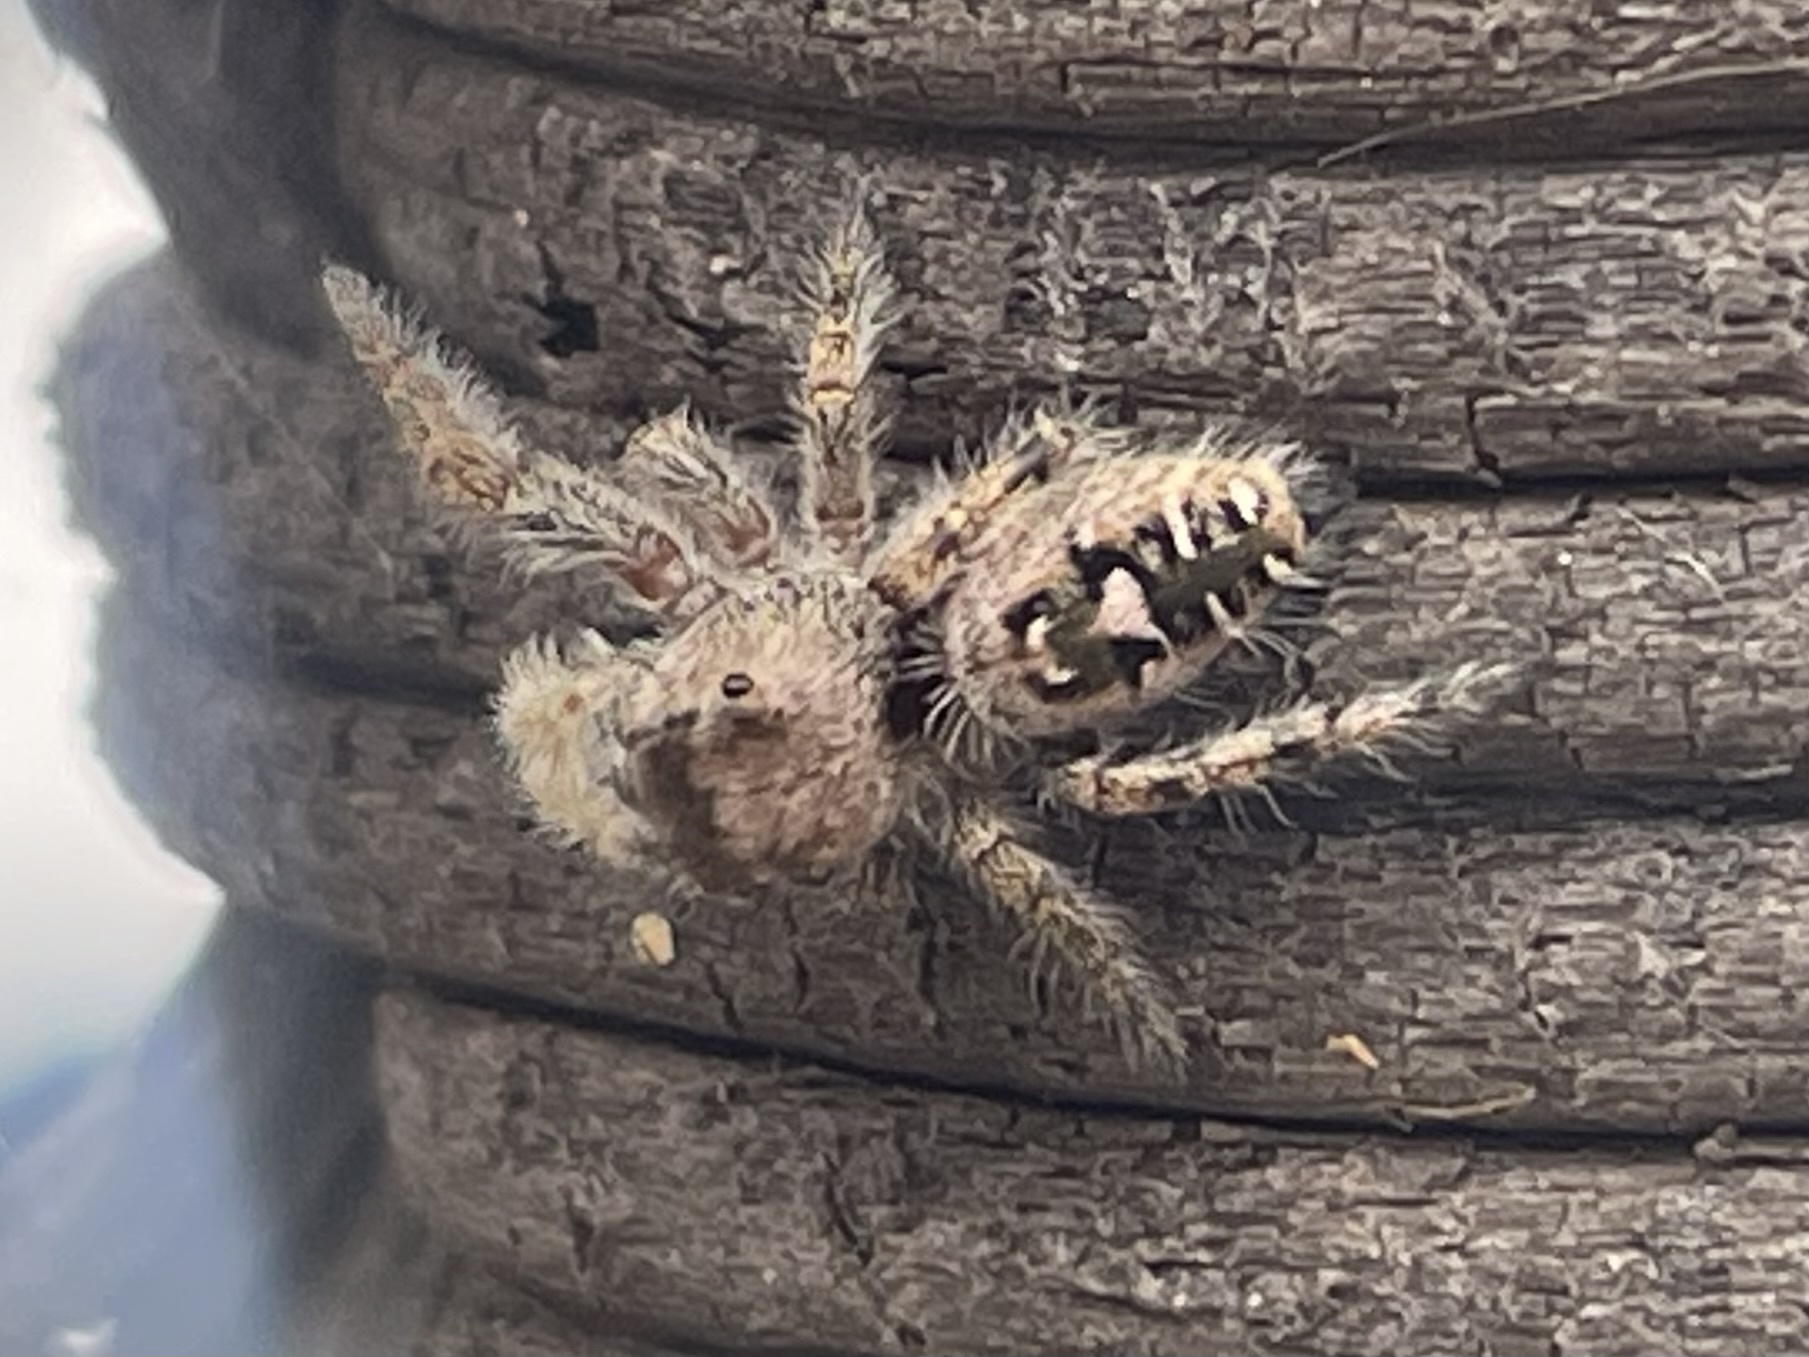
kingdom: Animalia
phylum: Arthropoda
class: Arachnida
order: Araneae
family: Salticidae
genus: Phidippus
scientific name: Phidippus carolinensis
